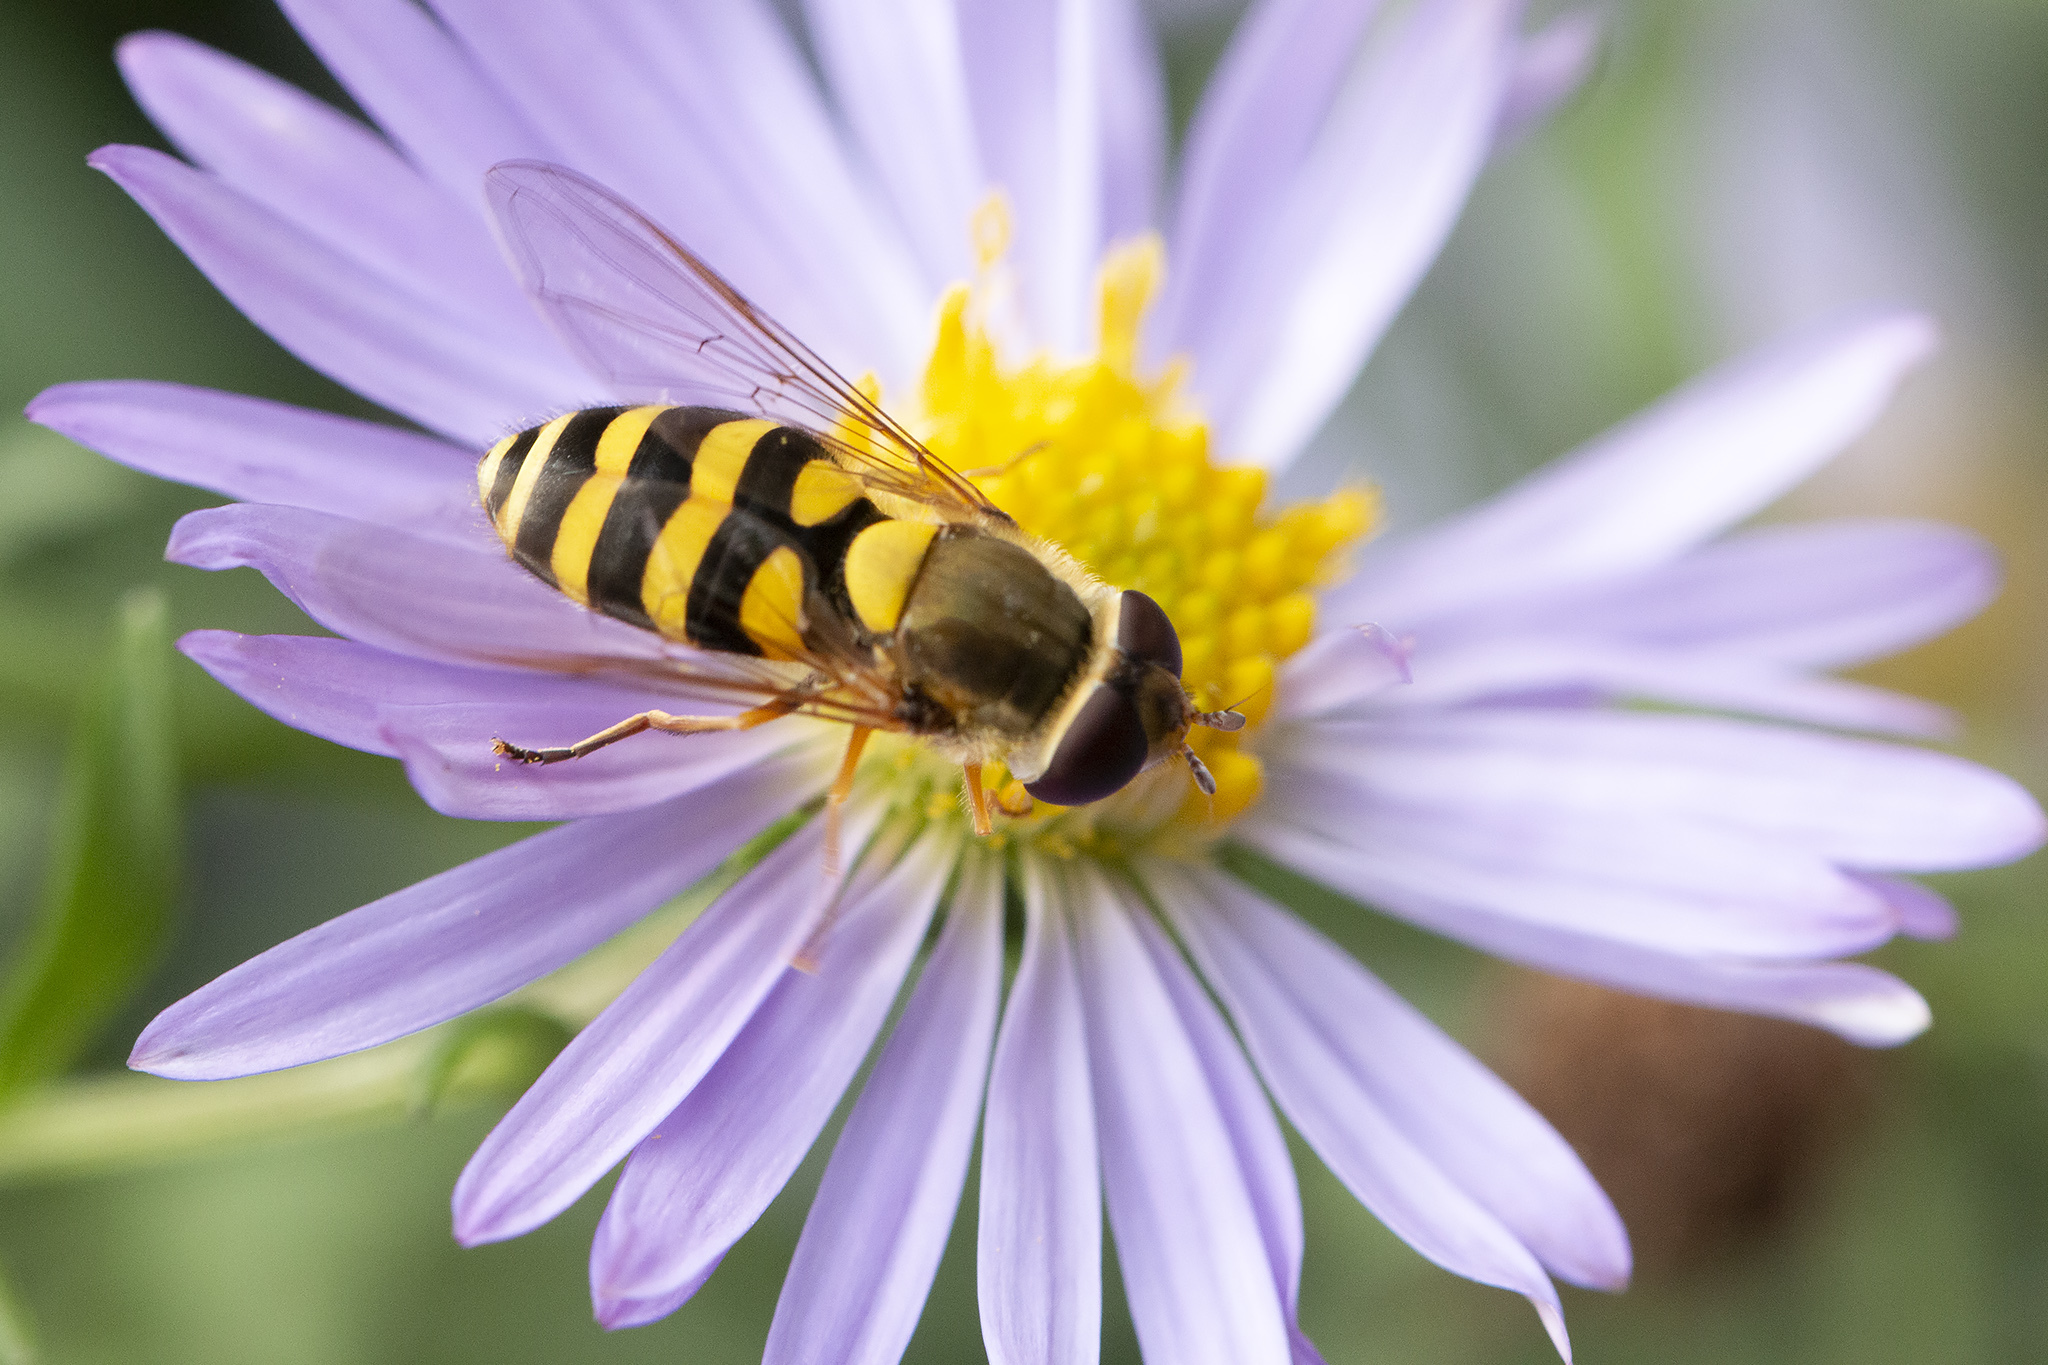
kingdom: Animalia
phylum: Arthropoda
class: Insecta
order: Diptera
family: Syrphidae
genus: Syrphus
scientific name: Syrphus
